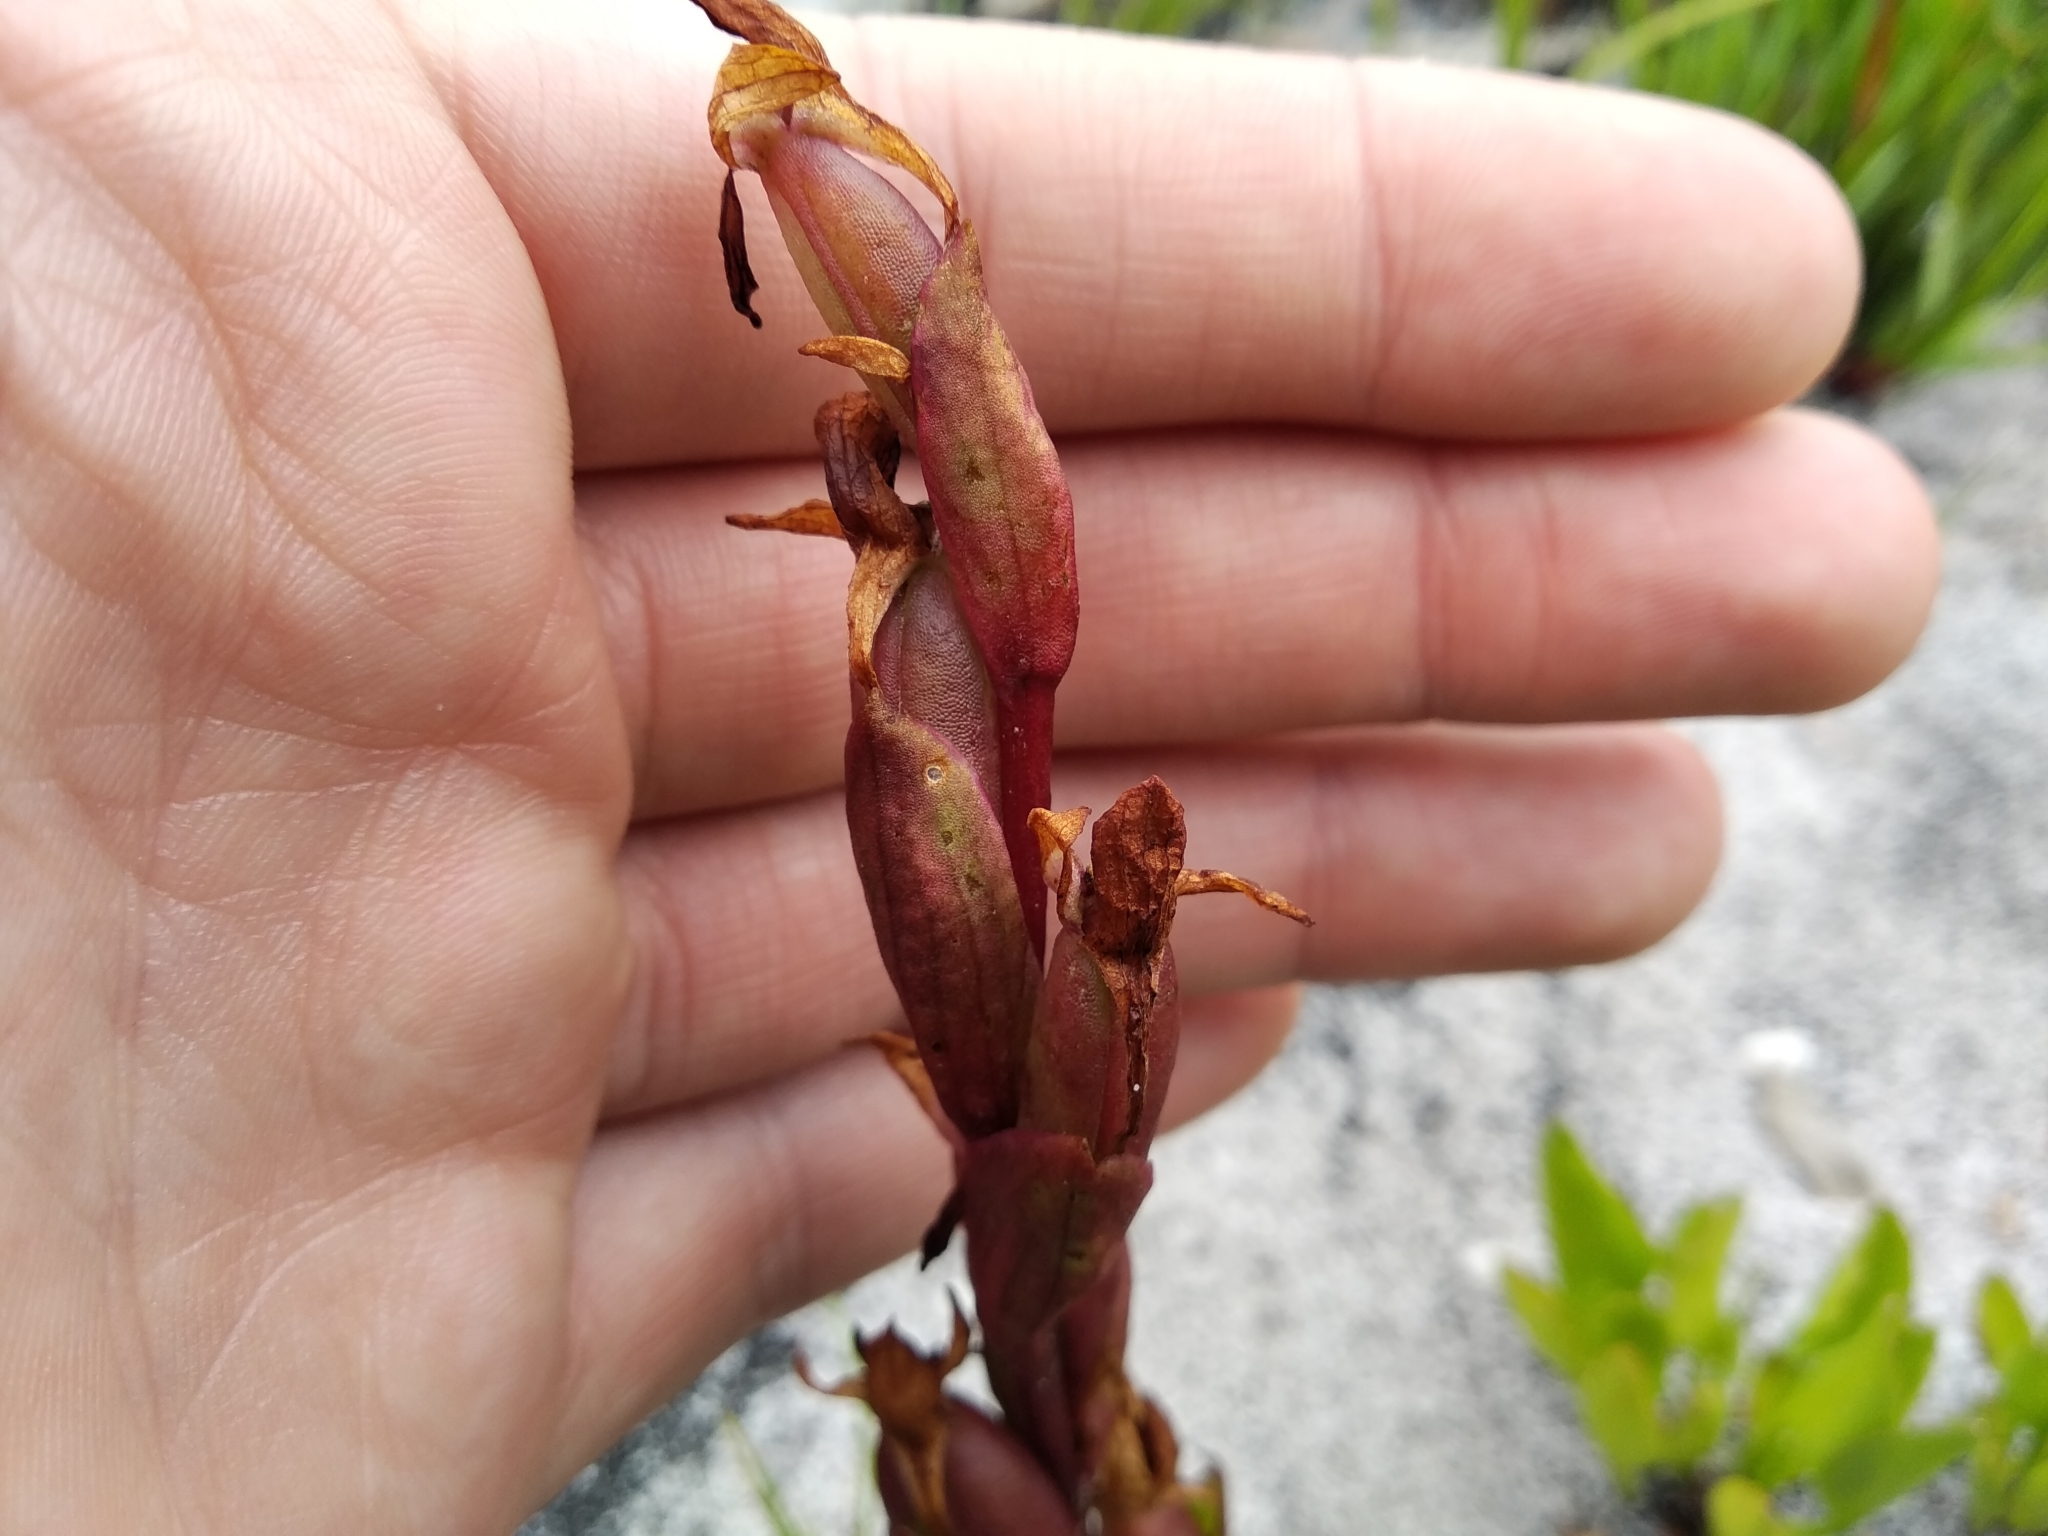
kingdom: Plantae
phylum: Tracheophyta
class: Liliopsida
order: Asparagales
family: Orchidaceae
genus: Disa
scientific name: Disa ophrydea
